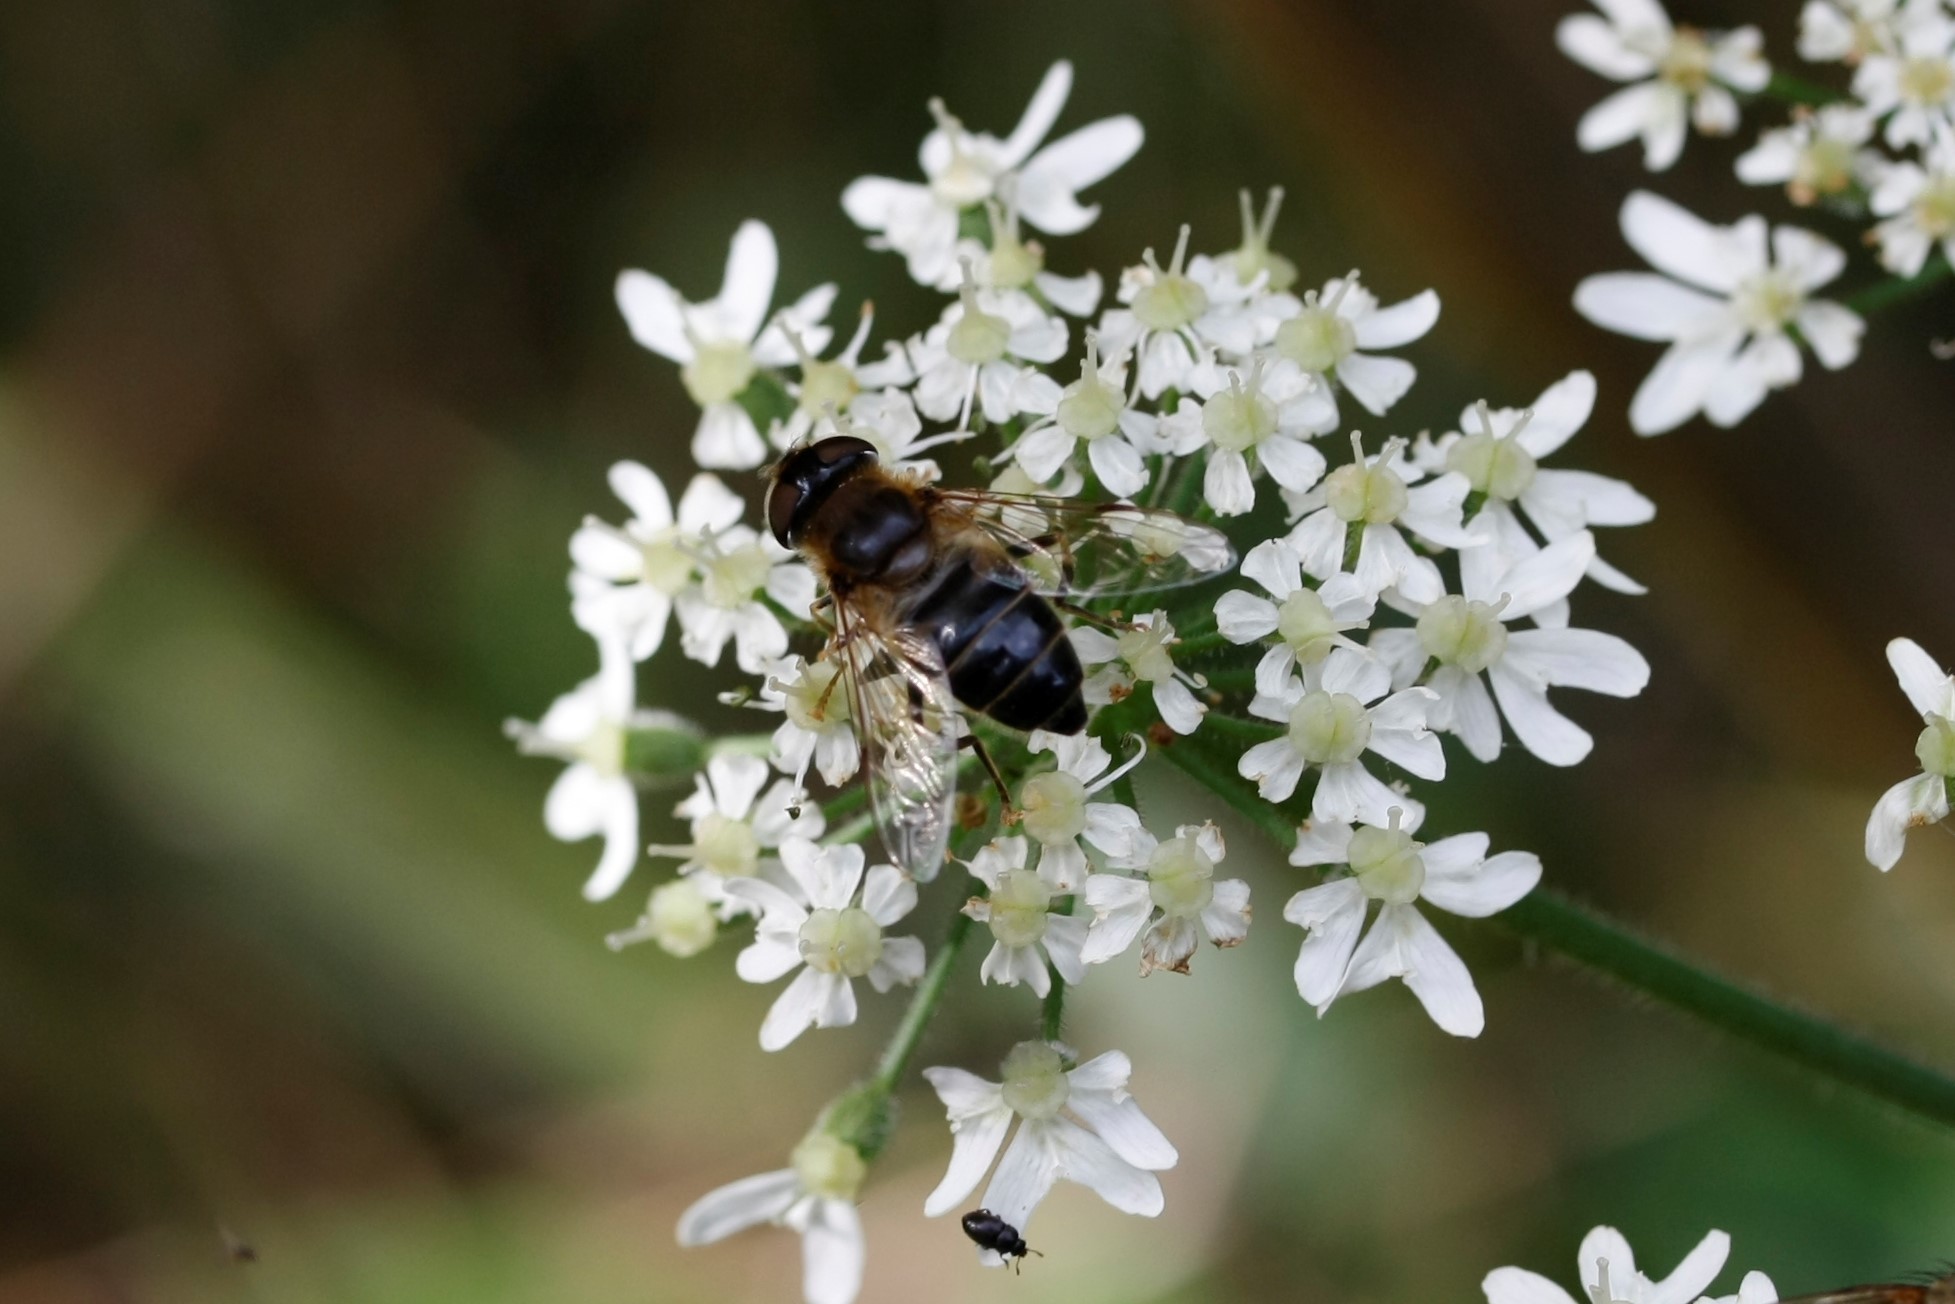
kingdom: Animalia
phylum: Arthropoda
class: Insecta
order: Diptera
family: Syrphidae
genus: Eristalis
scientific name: Eristalis pertinax
